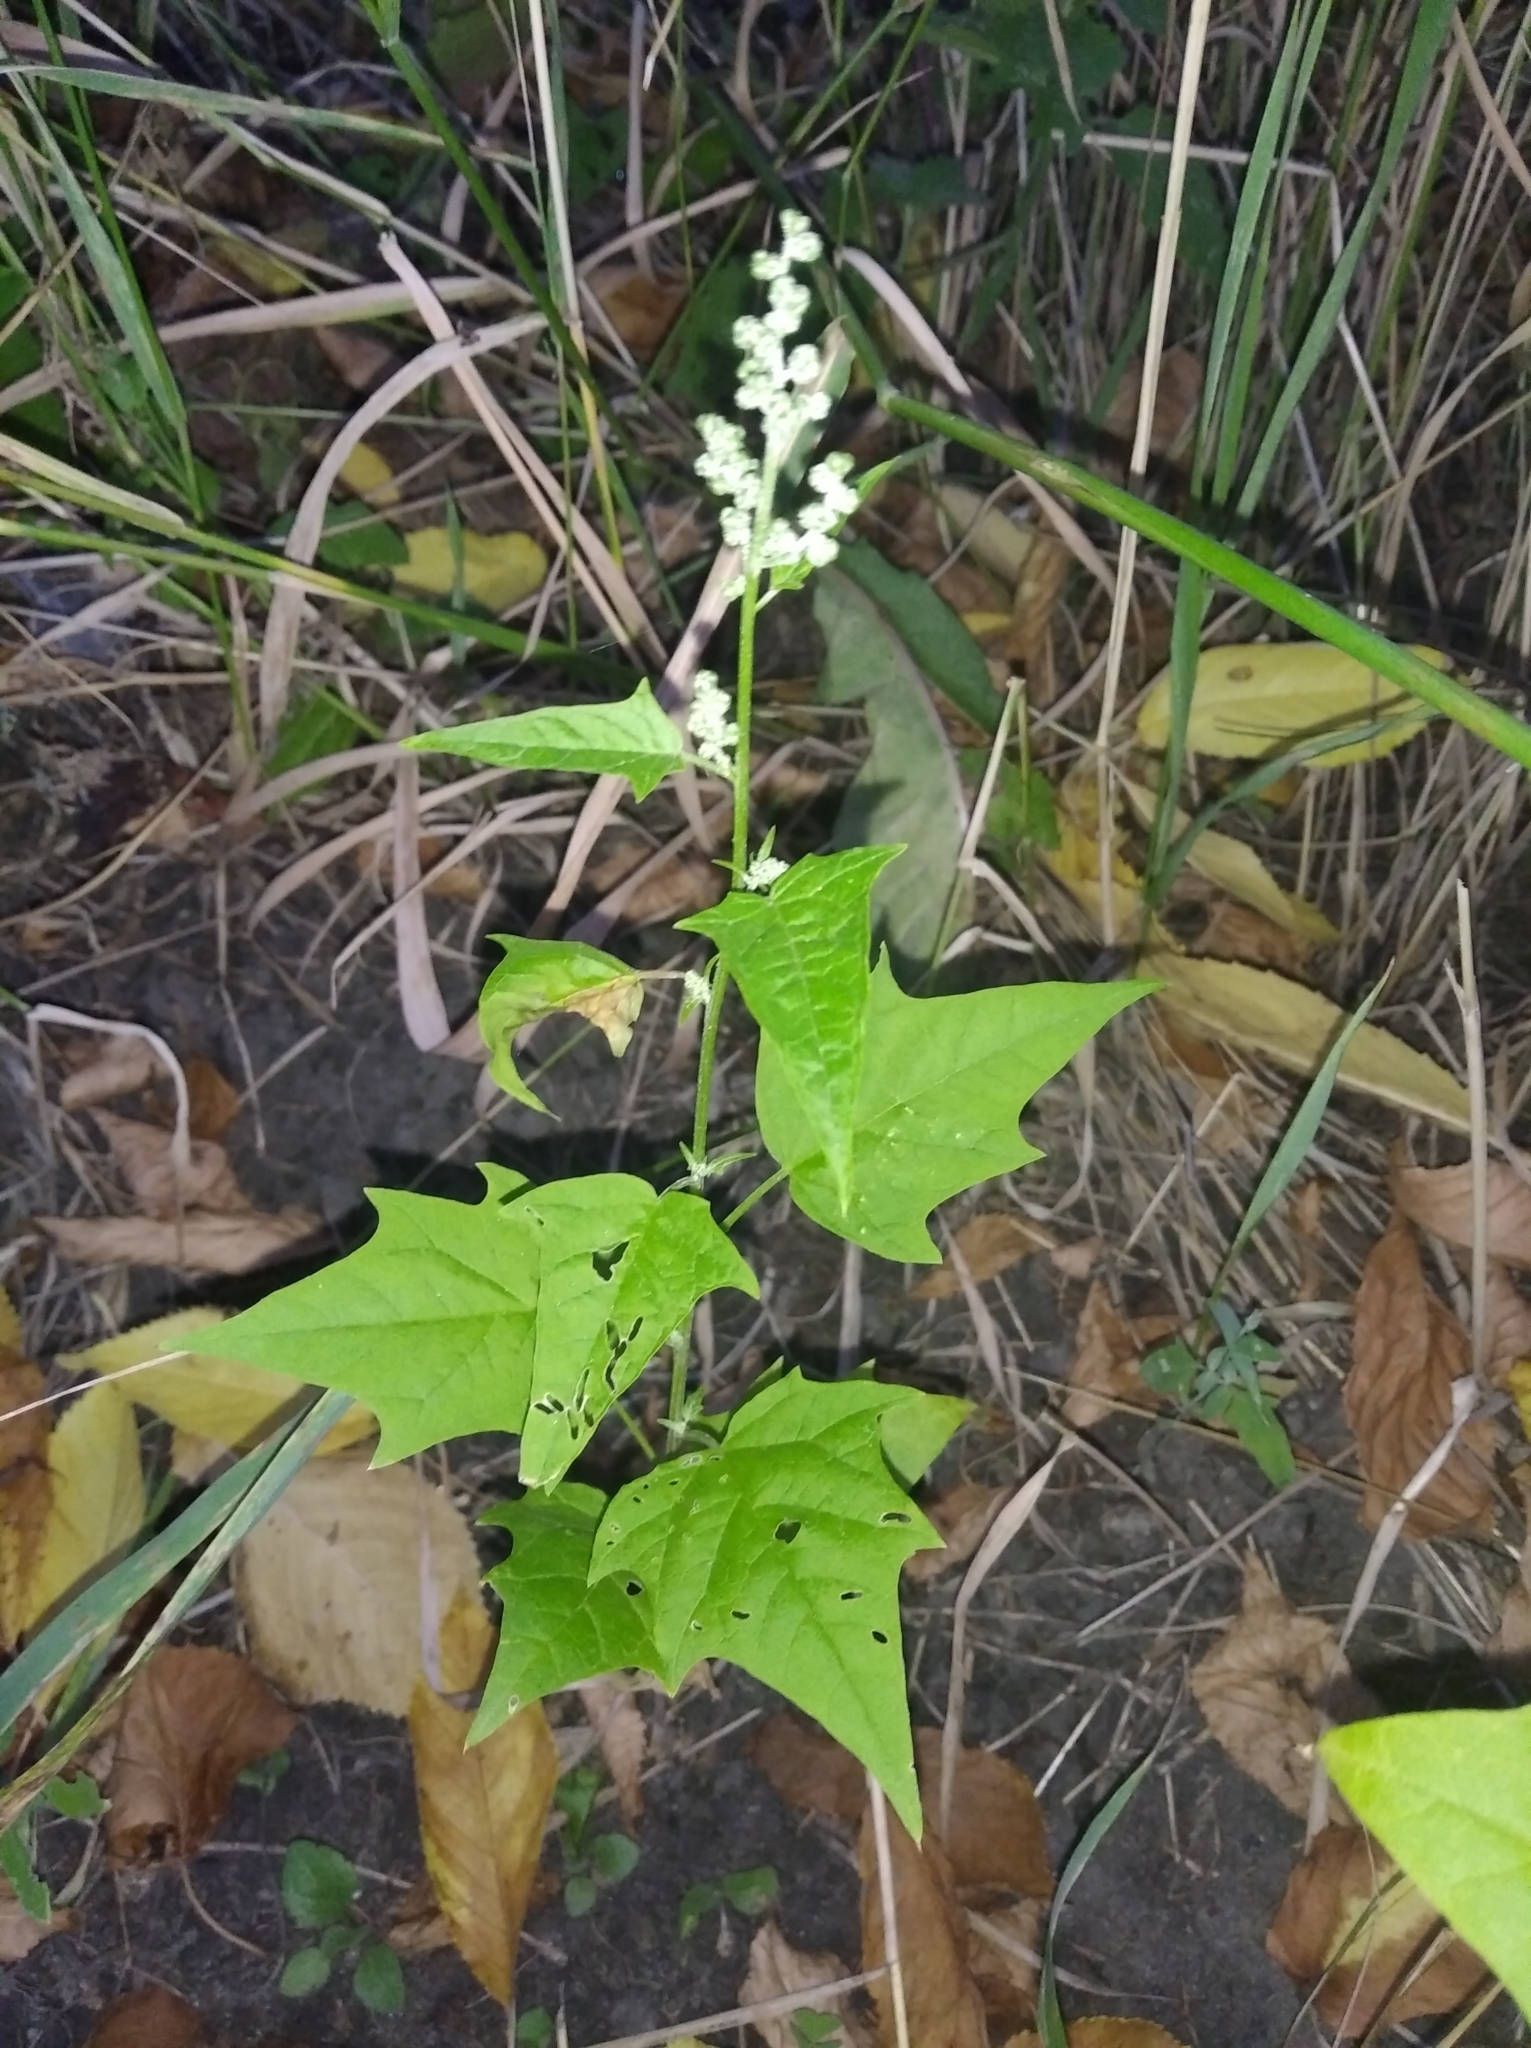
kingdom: Plantae
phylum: Tracheophyta
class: Magnoliopsida
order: Caryophyllales
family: Amaranthaceae
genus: Chenopodiastrum
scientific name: Chenopodiastrum hybridum
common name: Mapleleaf goosefoot
